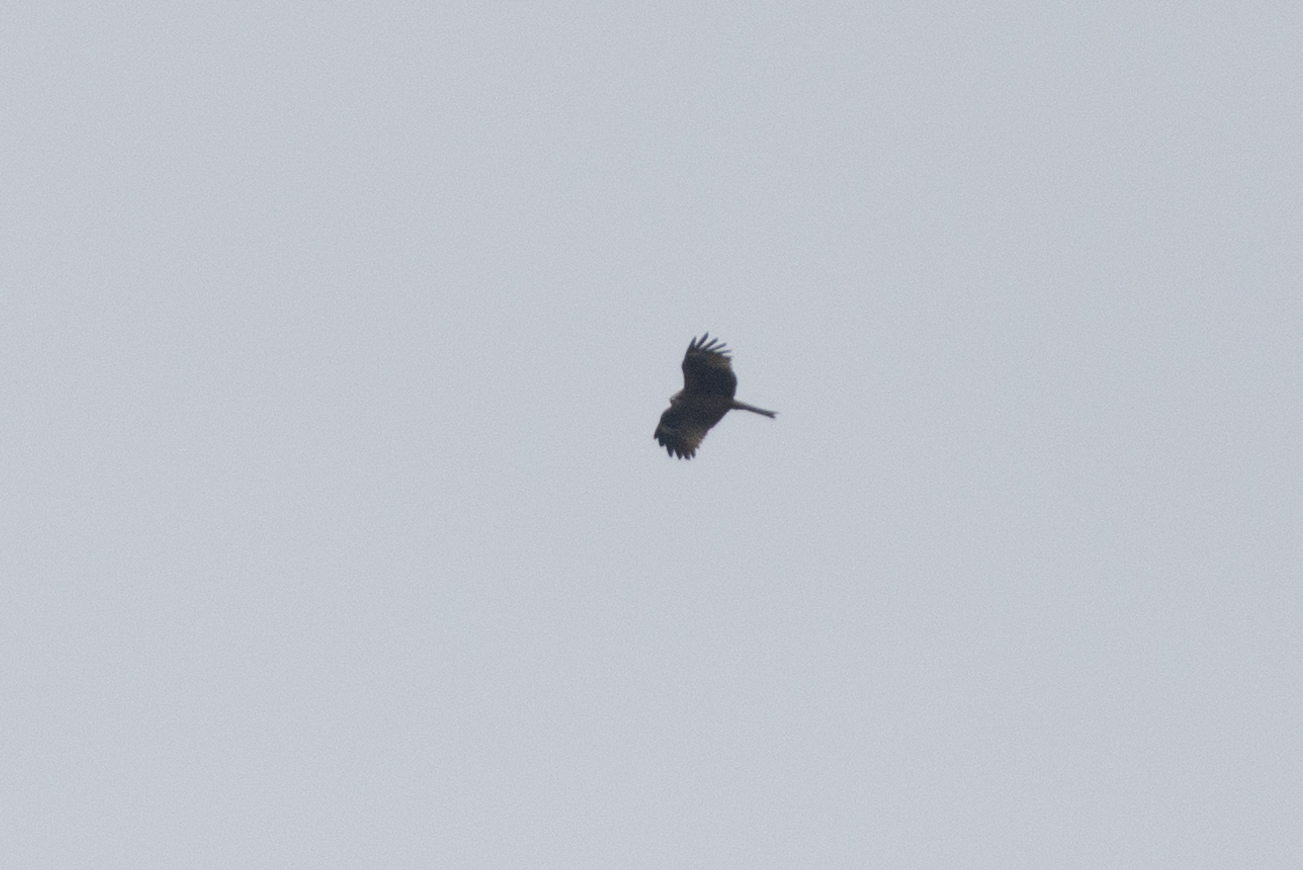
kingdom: Animalia
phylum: Chordata
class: Aves
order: Accipitriformes
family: Accipitridae
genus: Milvus
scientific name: Milvus migrans
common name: Black kite
